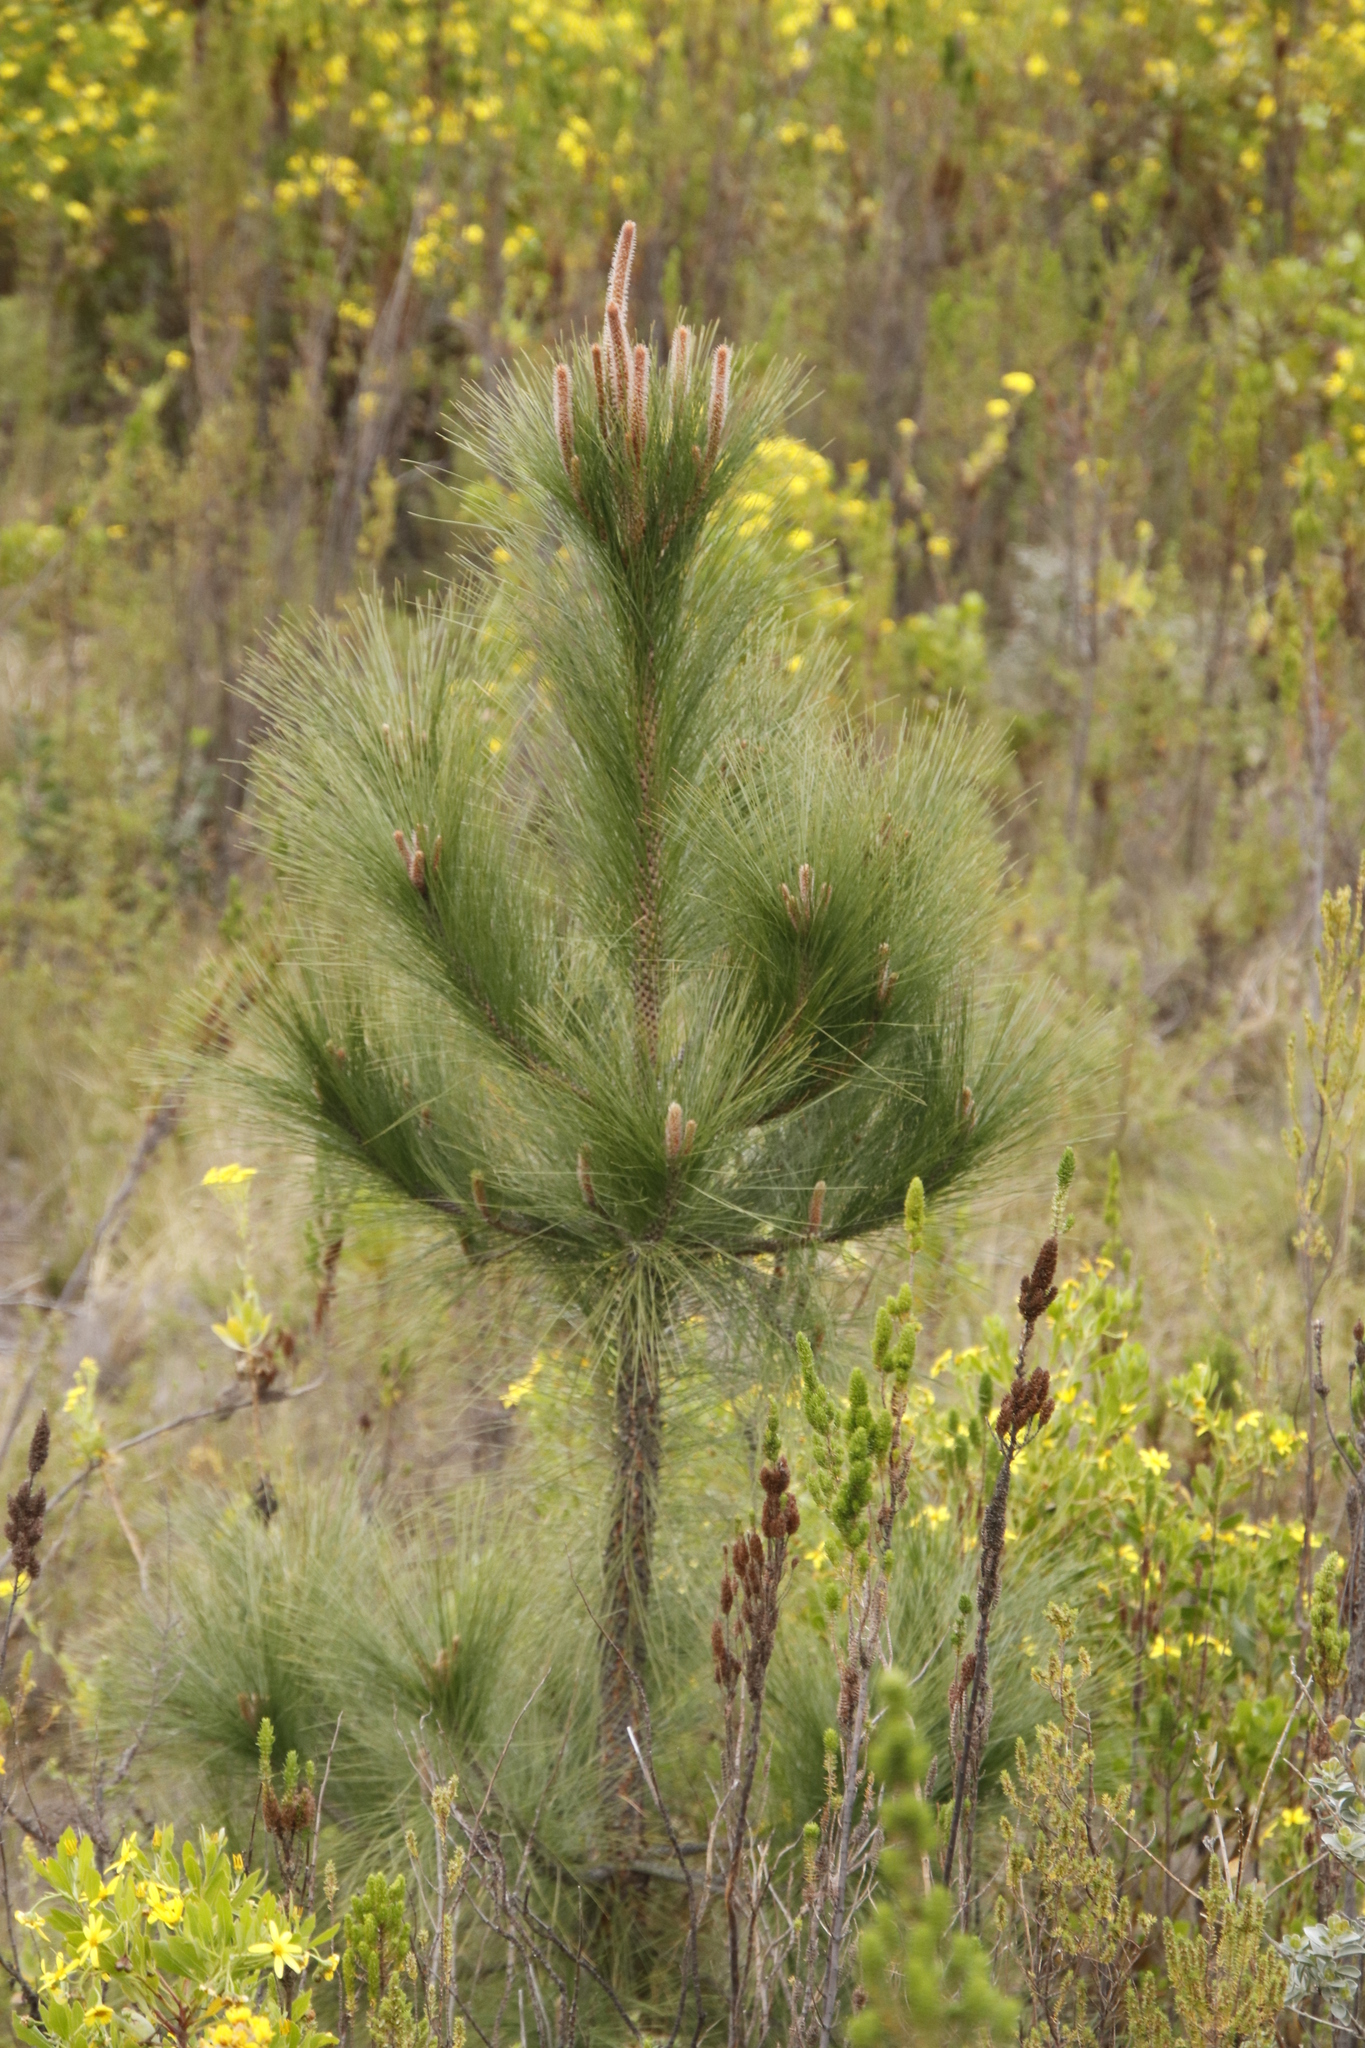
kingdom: Plantae
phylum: Tracheophyta
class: Pinopsida
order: Pinales
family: Pinaceae
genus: Pinus
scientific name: Pinus coulteri
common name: Coulter pine
